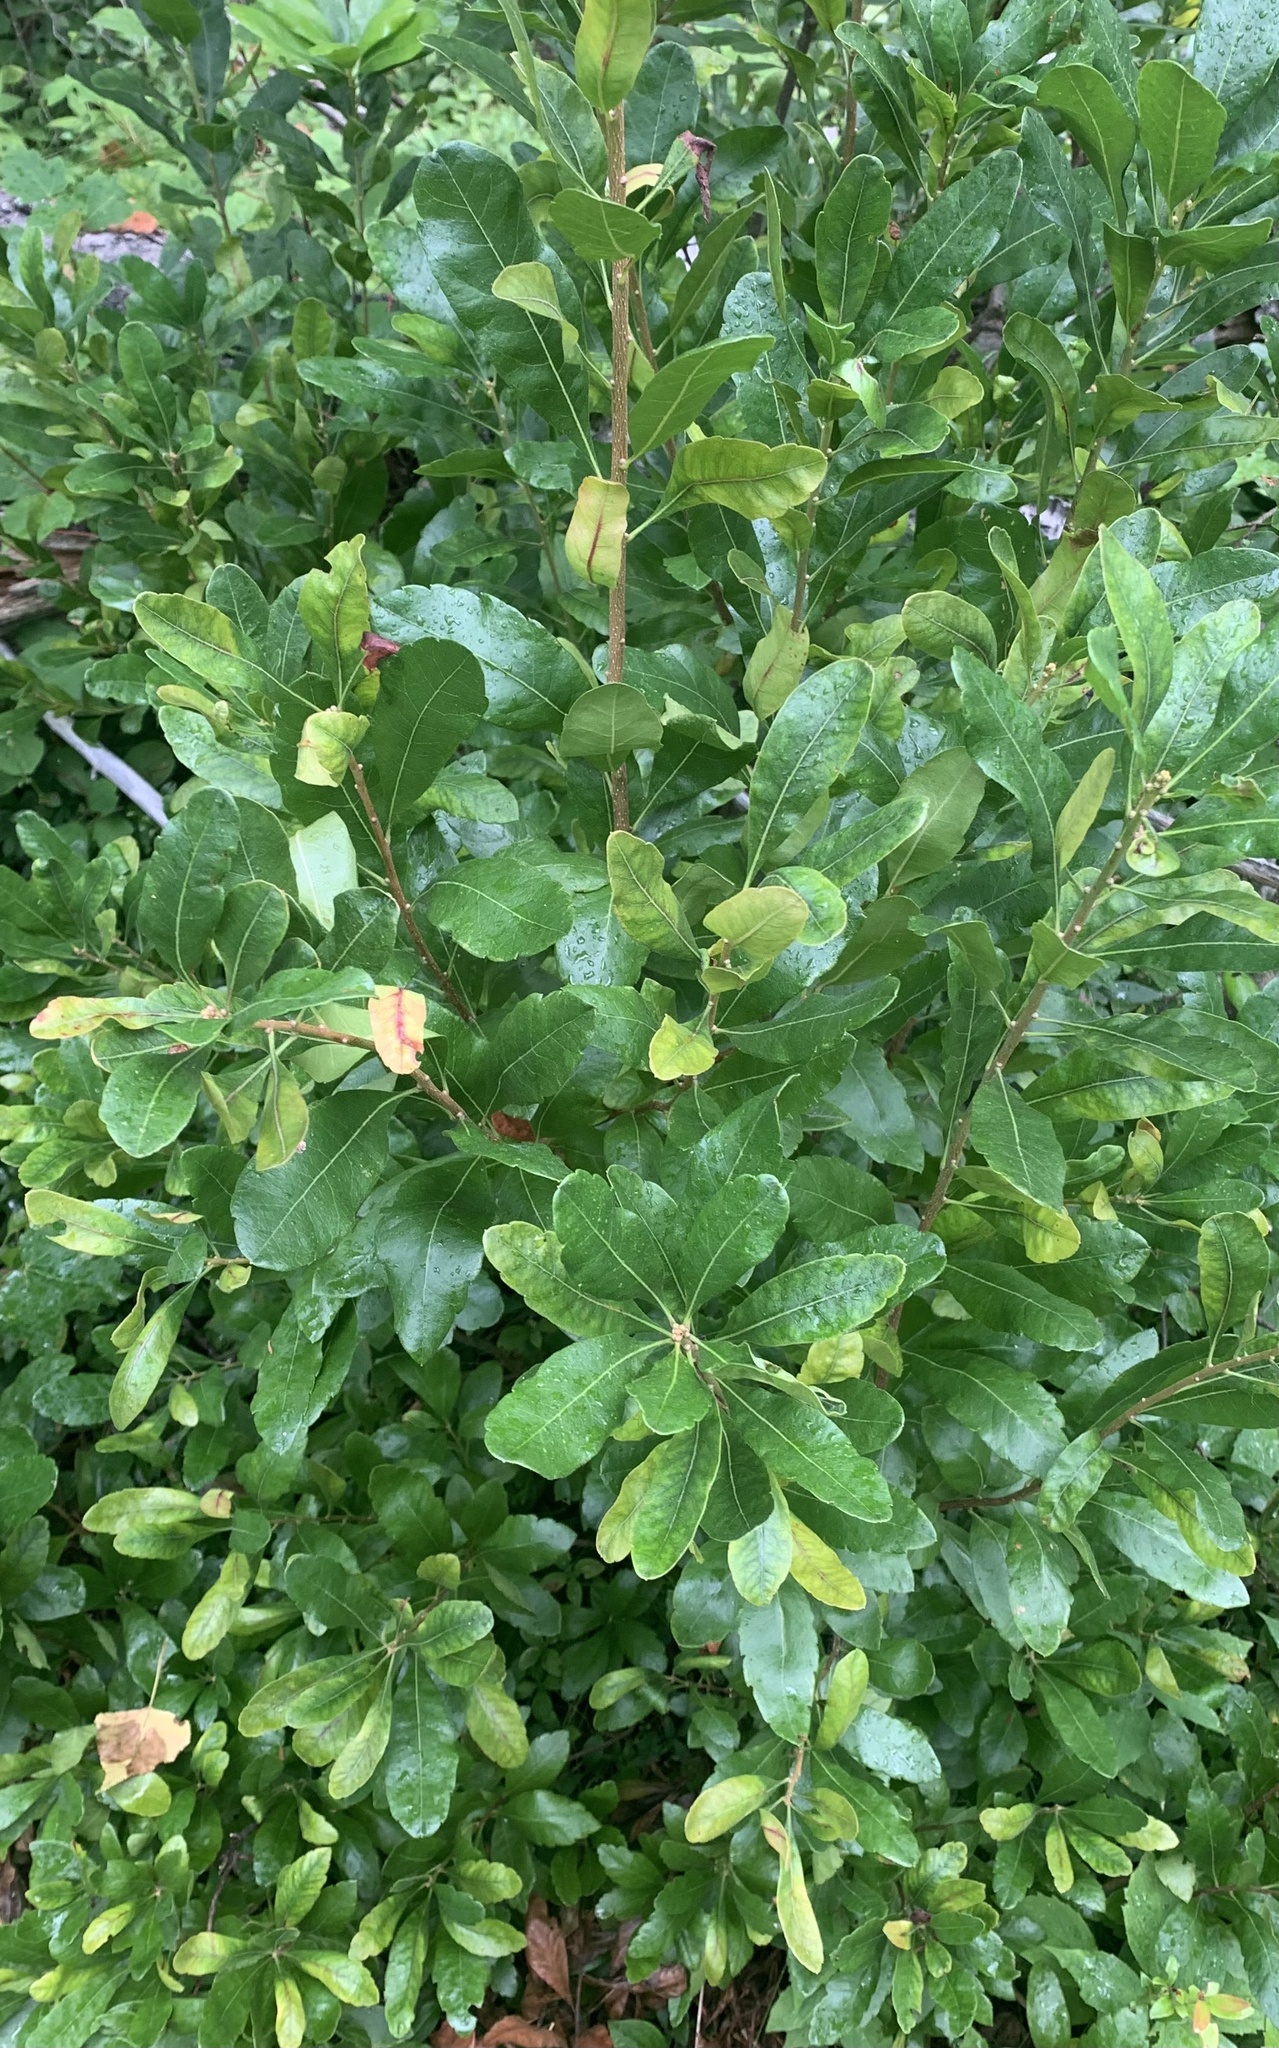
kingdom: Plantae
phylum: Tracheophyta
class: Magnoliopsida
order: Fagales
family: Myricaceae
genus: Morella
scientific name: Morella pensylvanica
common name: Northern bayberry
